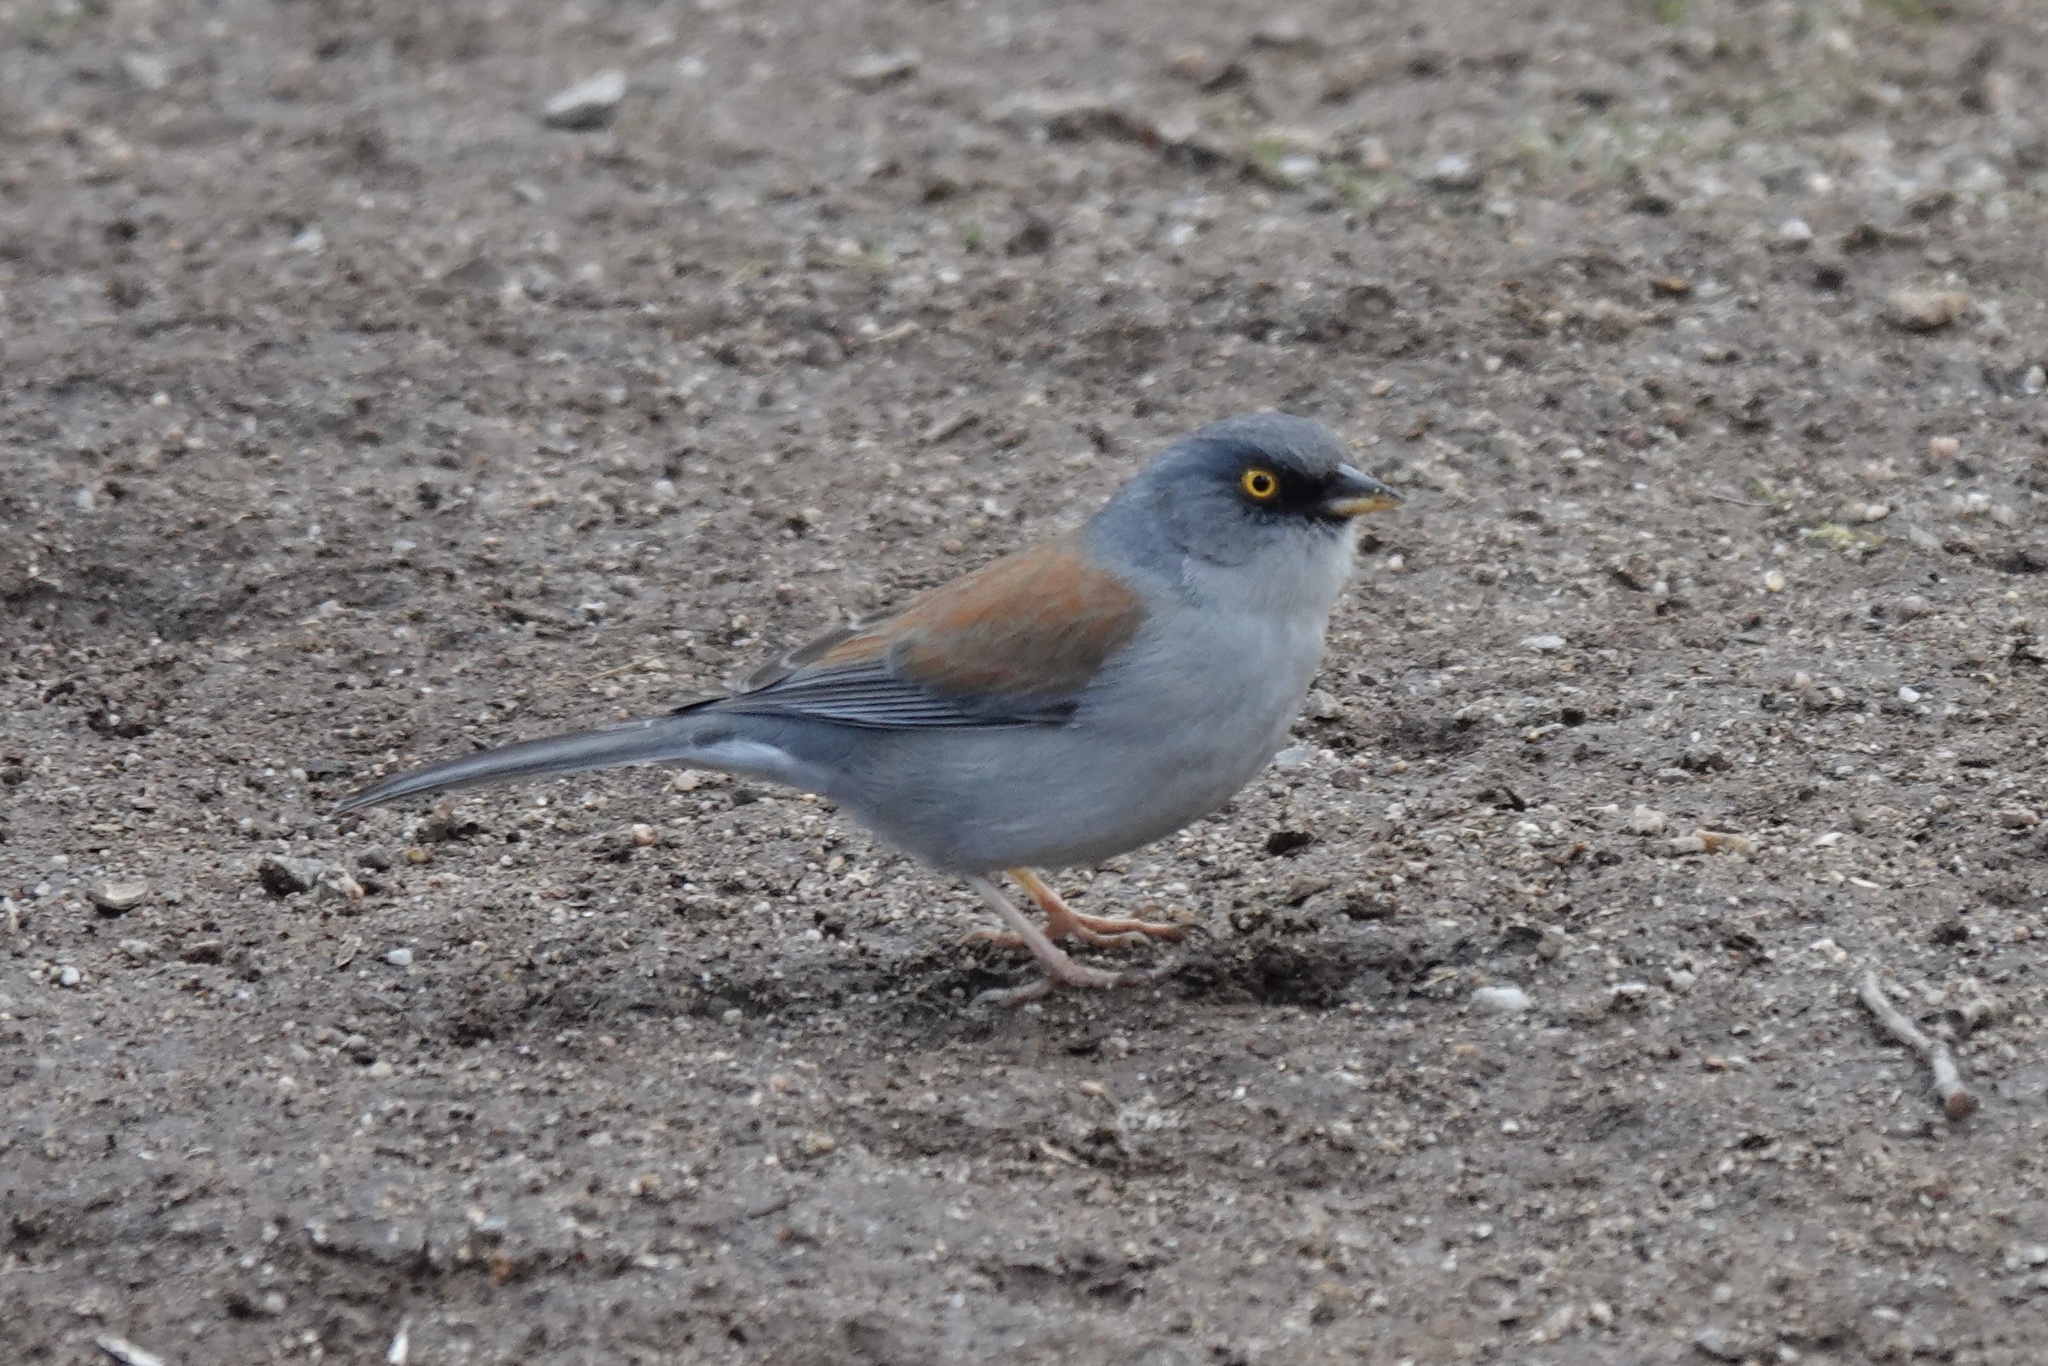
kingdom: Animalia
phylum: Chordata
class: Aves
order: Passeriformes
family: Passerellidae
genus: Junco
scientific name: Junco phaeonotus
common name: Yellow-eyed junco
